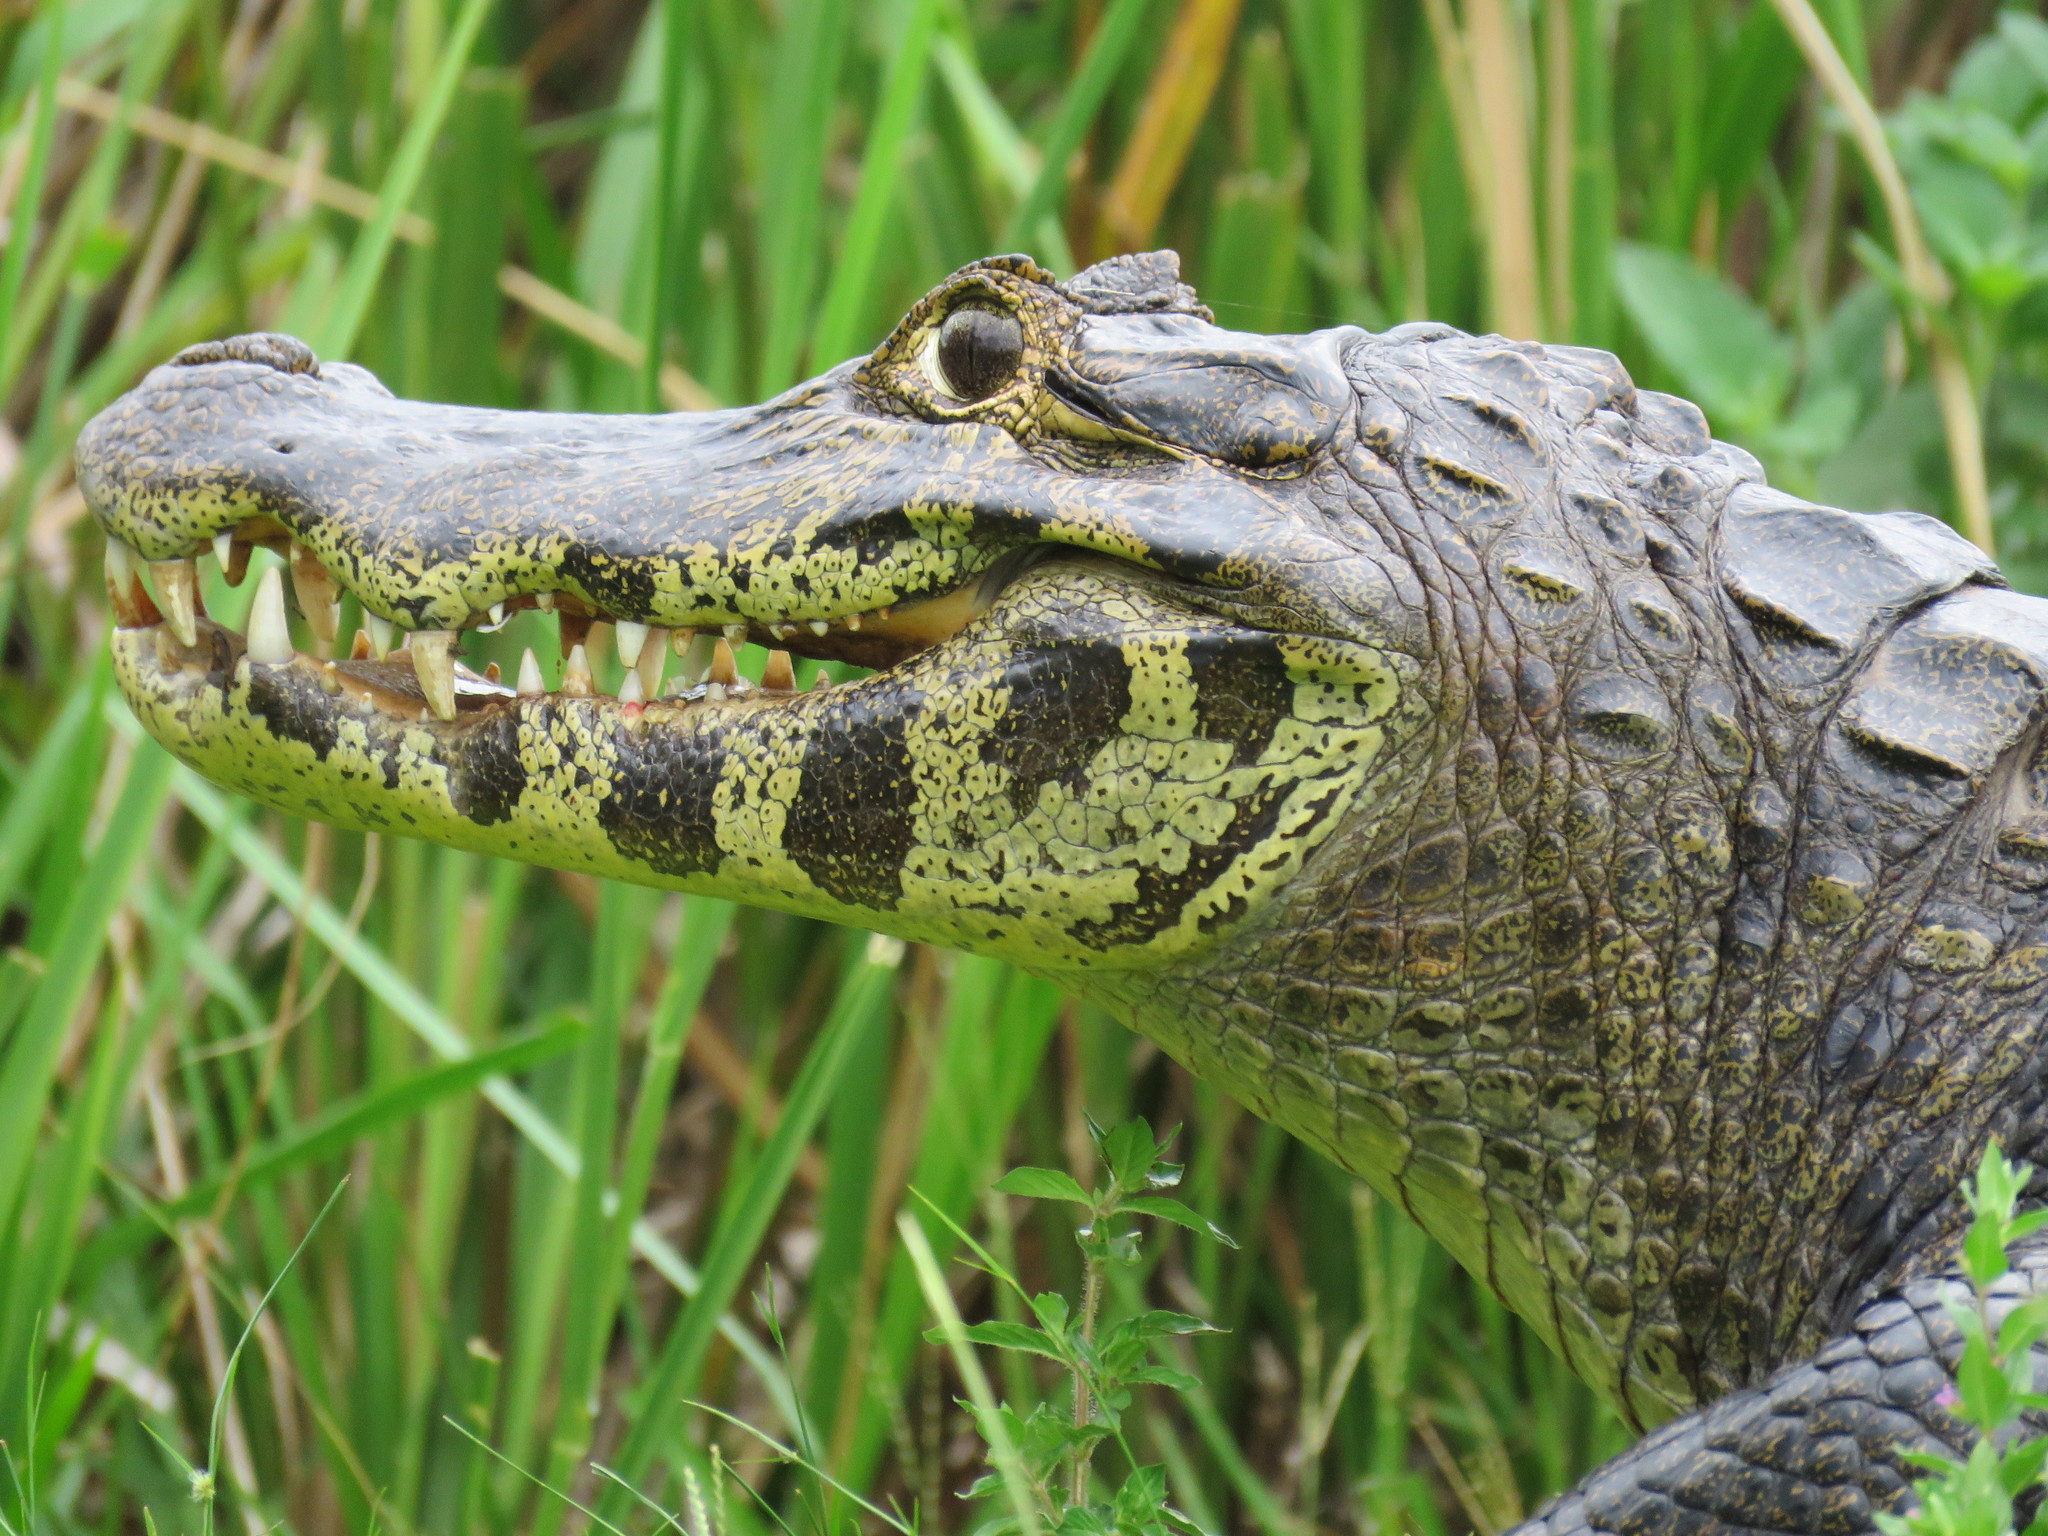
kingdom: Animalia
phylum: Chordata
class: Crocodylia
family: Alligatoridae
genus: Caiman
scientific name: Caiman yacare
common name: Yacare caiman
